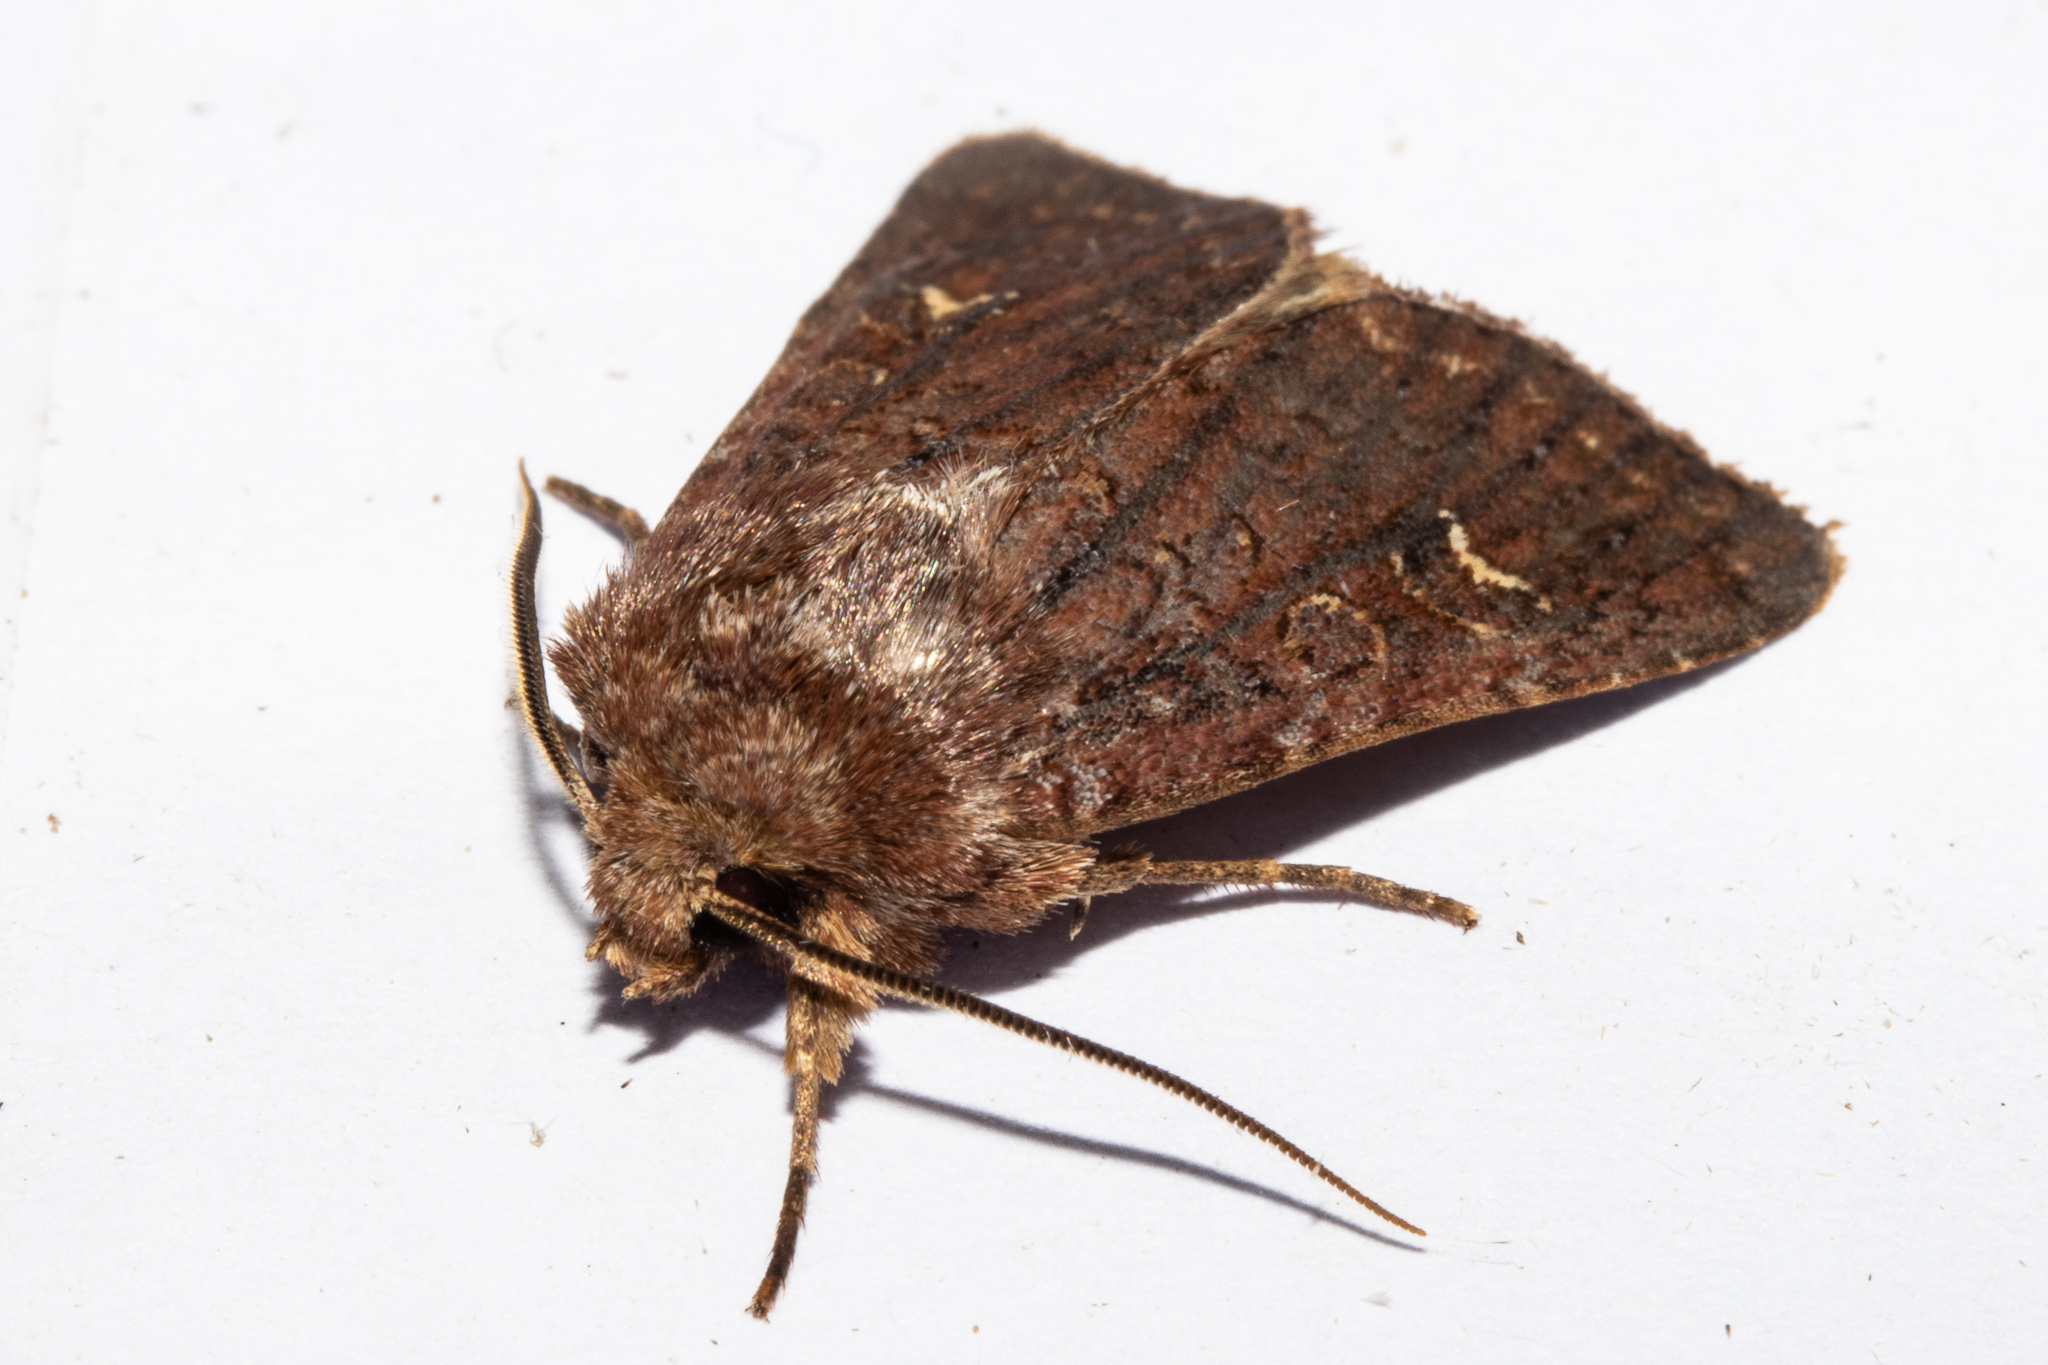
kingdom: Animalia
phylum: Arthropoda
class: Insecta
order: Lepidoptera
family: Noctuidae
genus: Ichneutica
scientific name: Ichneutica agorastis
